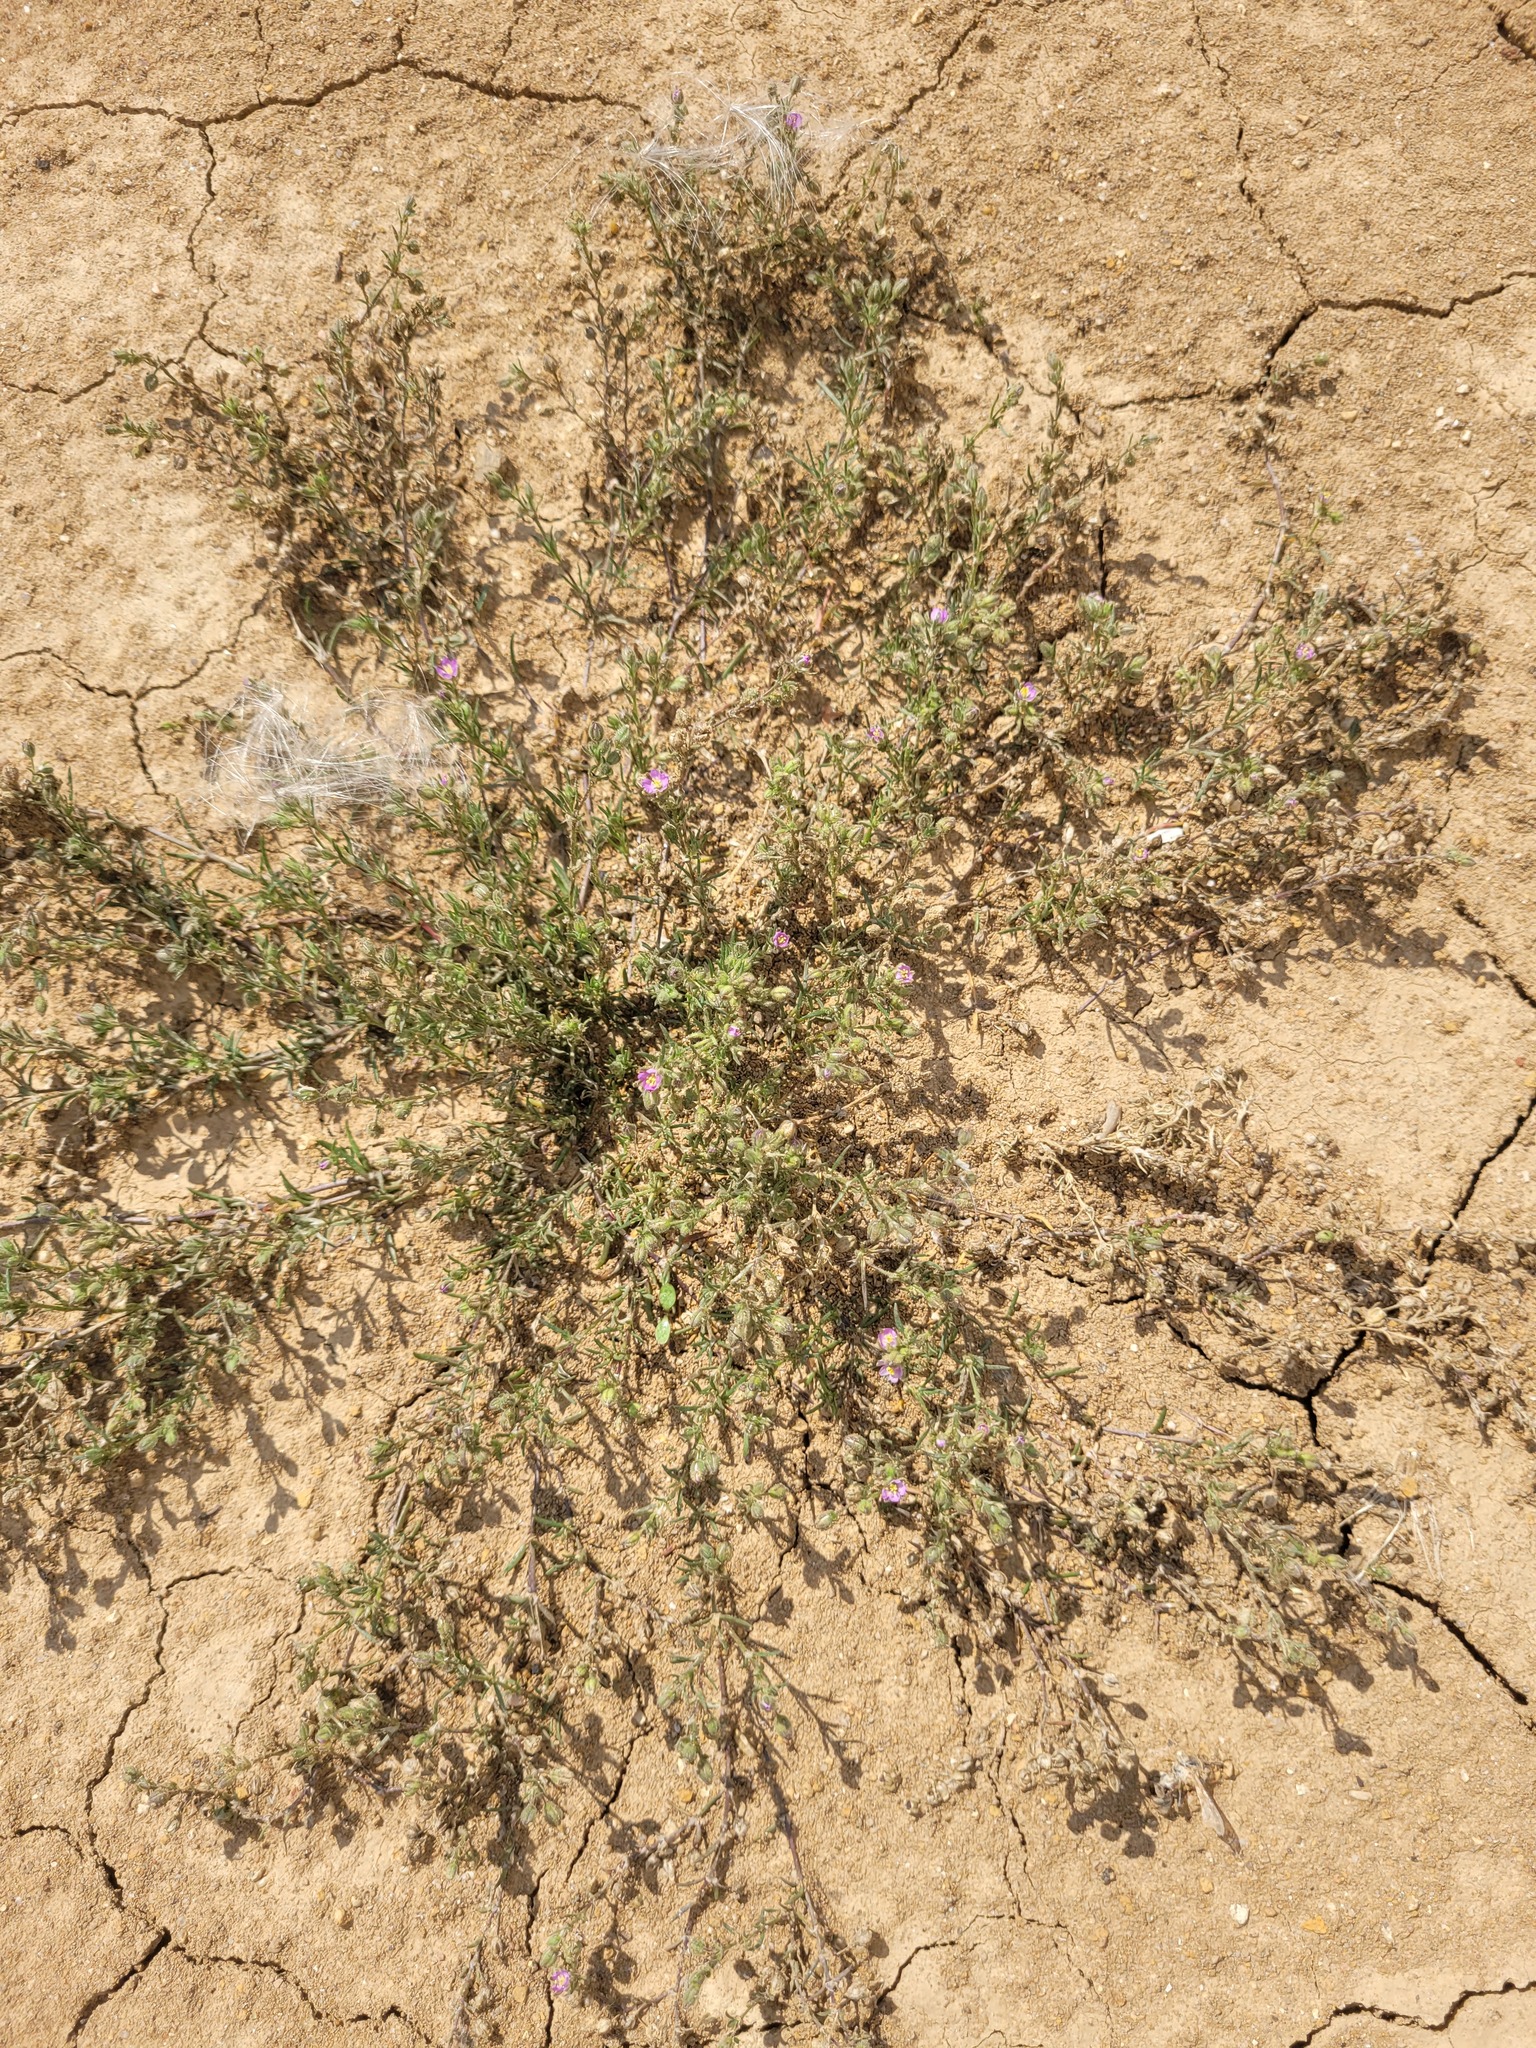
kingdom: Plantae
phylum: Tracheophyta
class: Magnoliopsida
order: Caryophyllales
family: Caryophyllaceae
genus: Spergularia
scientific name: Spergularia rubra
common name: Red sand-spurrey
